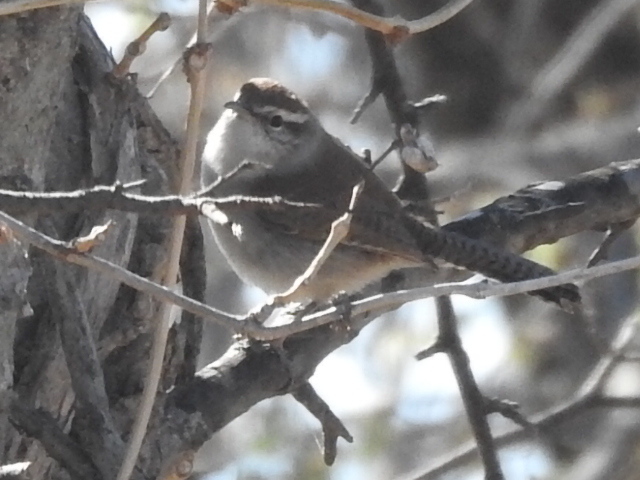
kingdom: Animalia
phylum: Chordata
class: Aves
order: Passeriformes
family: Troglodytidae
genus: Thryomanes
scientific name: Thryomanes bewickii
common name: Bewick's wren
